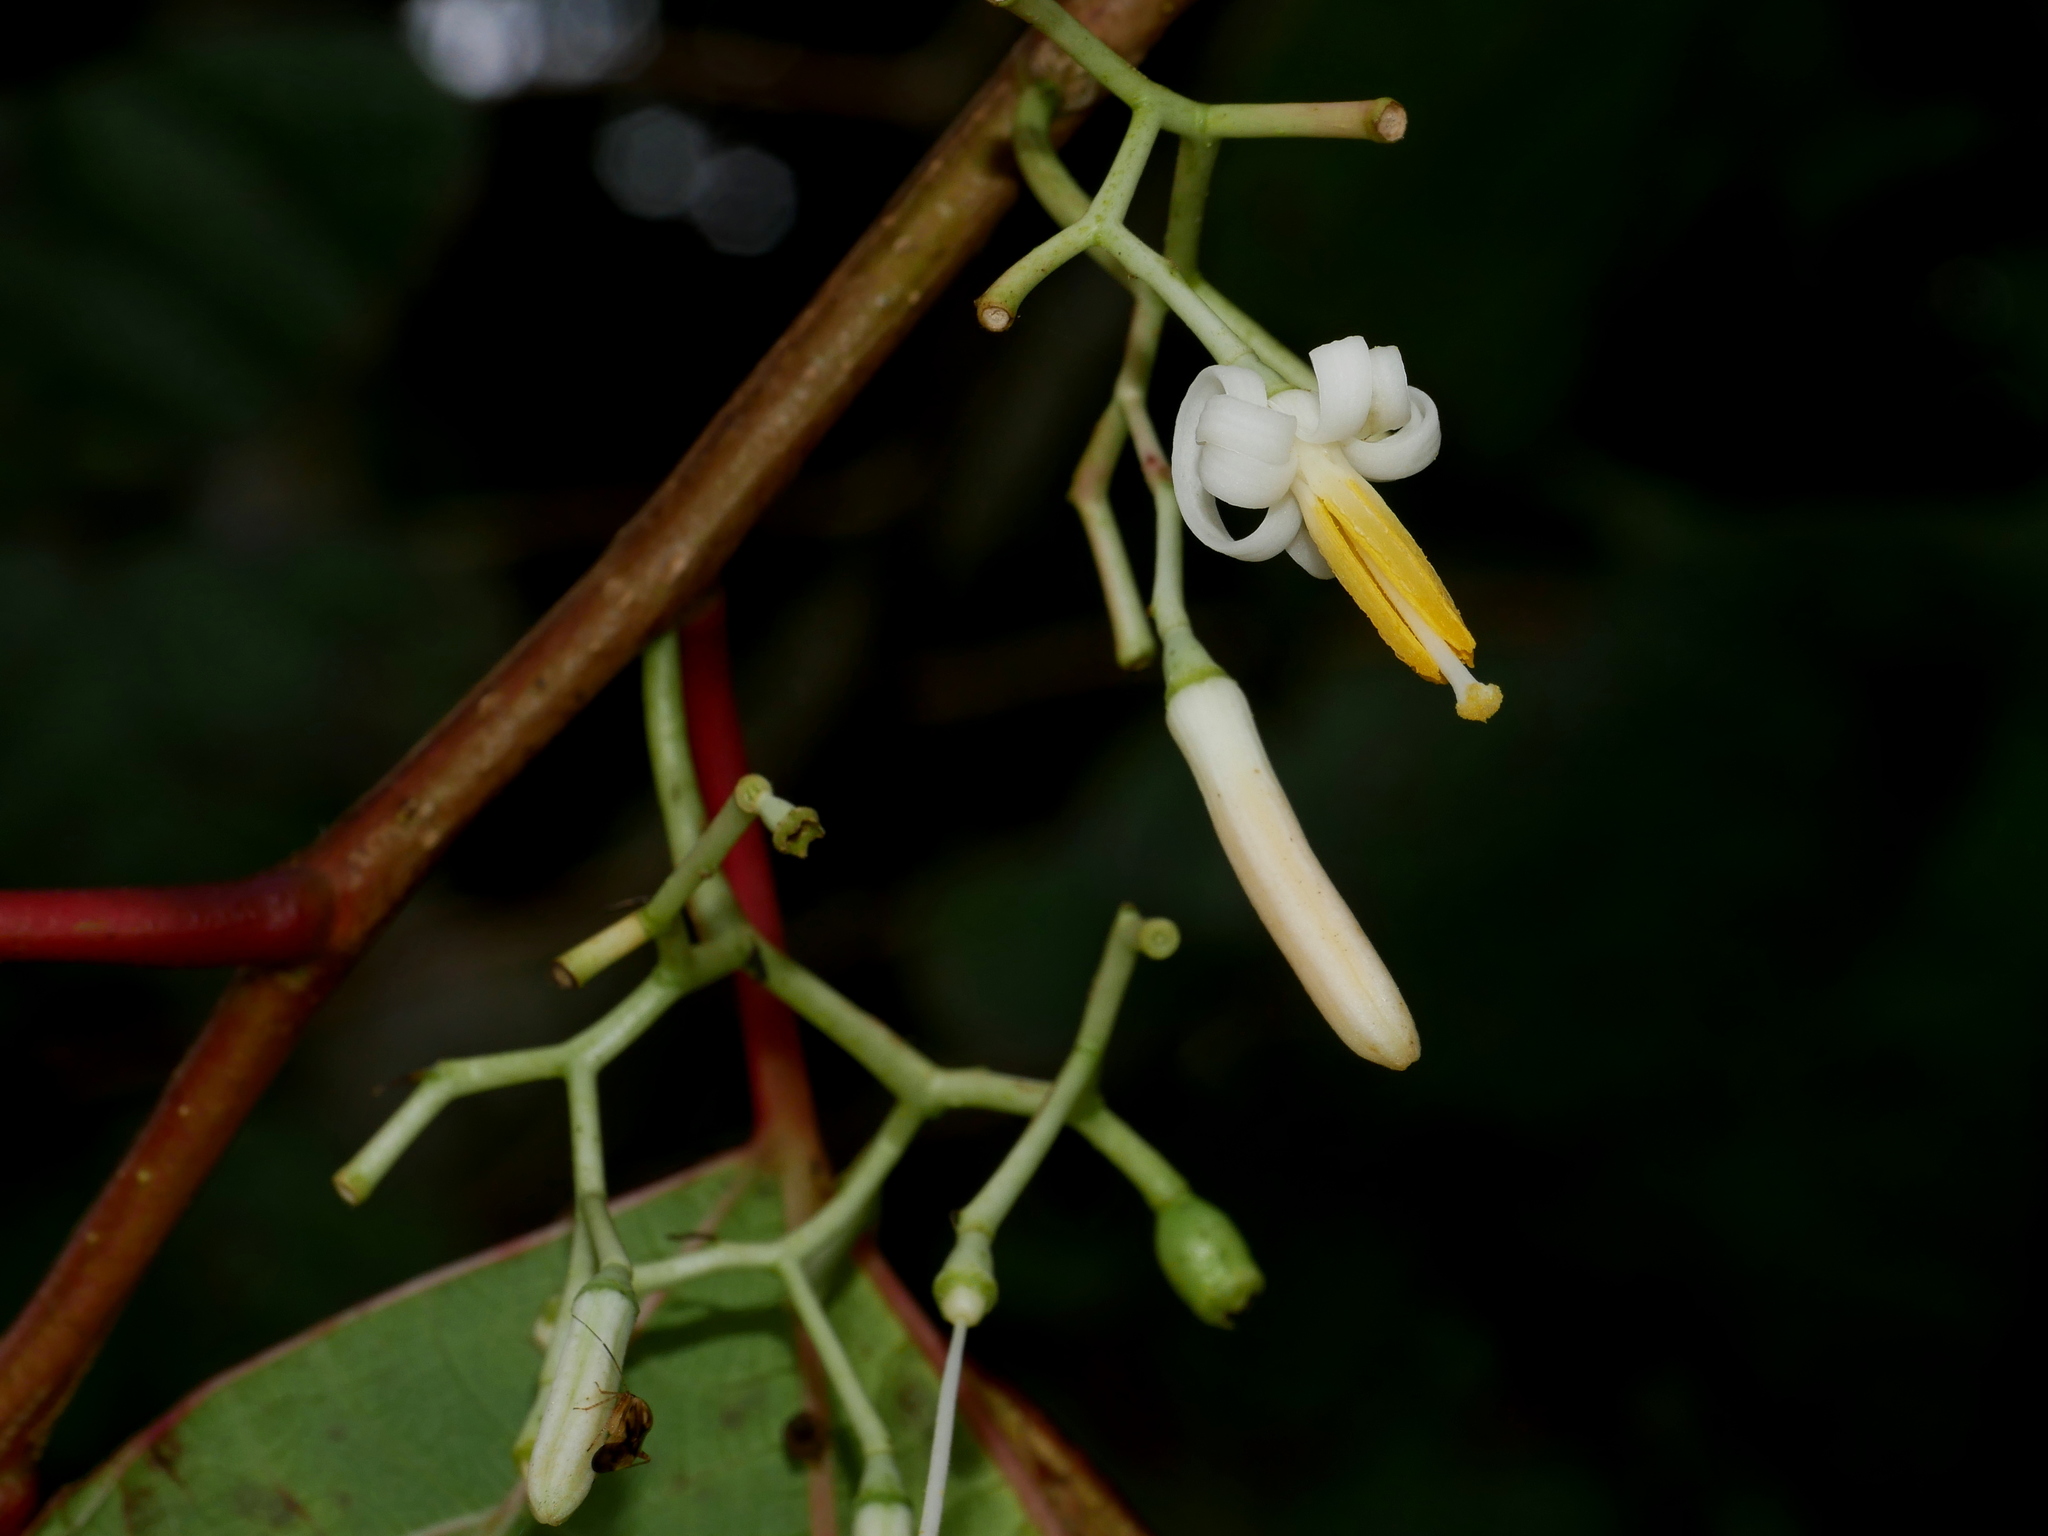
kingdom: Plantae
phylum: Tracheophyta
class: Magnoliopsida
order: Cornales
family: Cornaceae
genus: Alangium
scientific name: Alangium chinense
